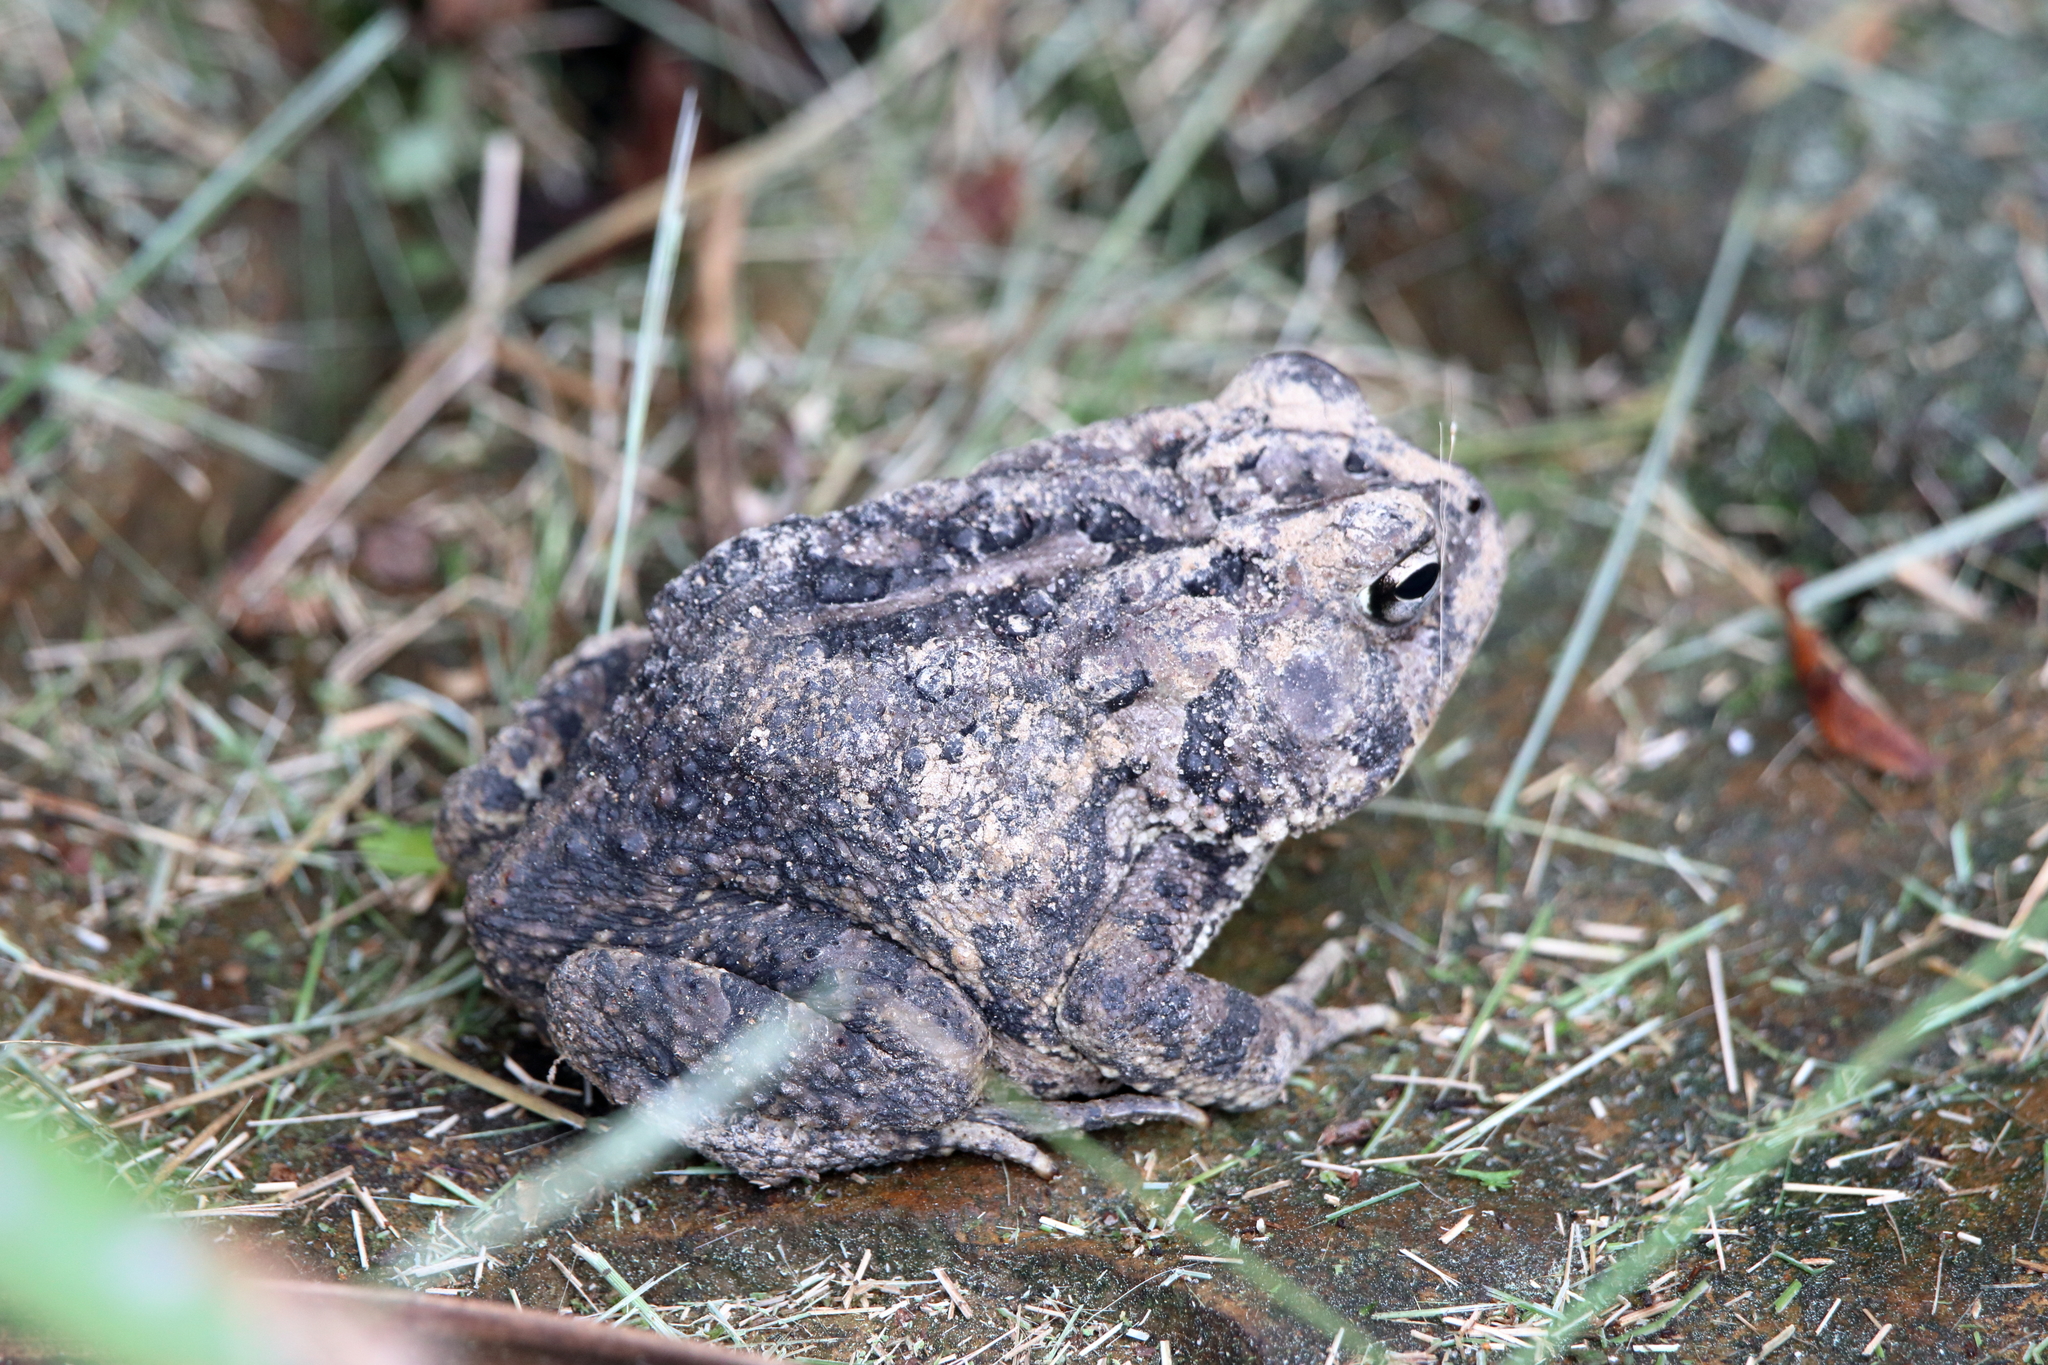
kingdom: Animalia
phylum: Chordata
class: Amphibia
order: Anura
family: Bufonidae
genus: Anaxyrus
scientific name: Anaxyrus terrestris
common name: Southern toad
